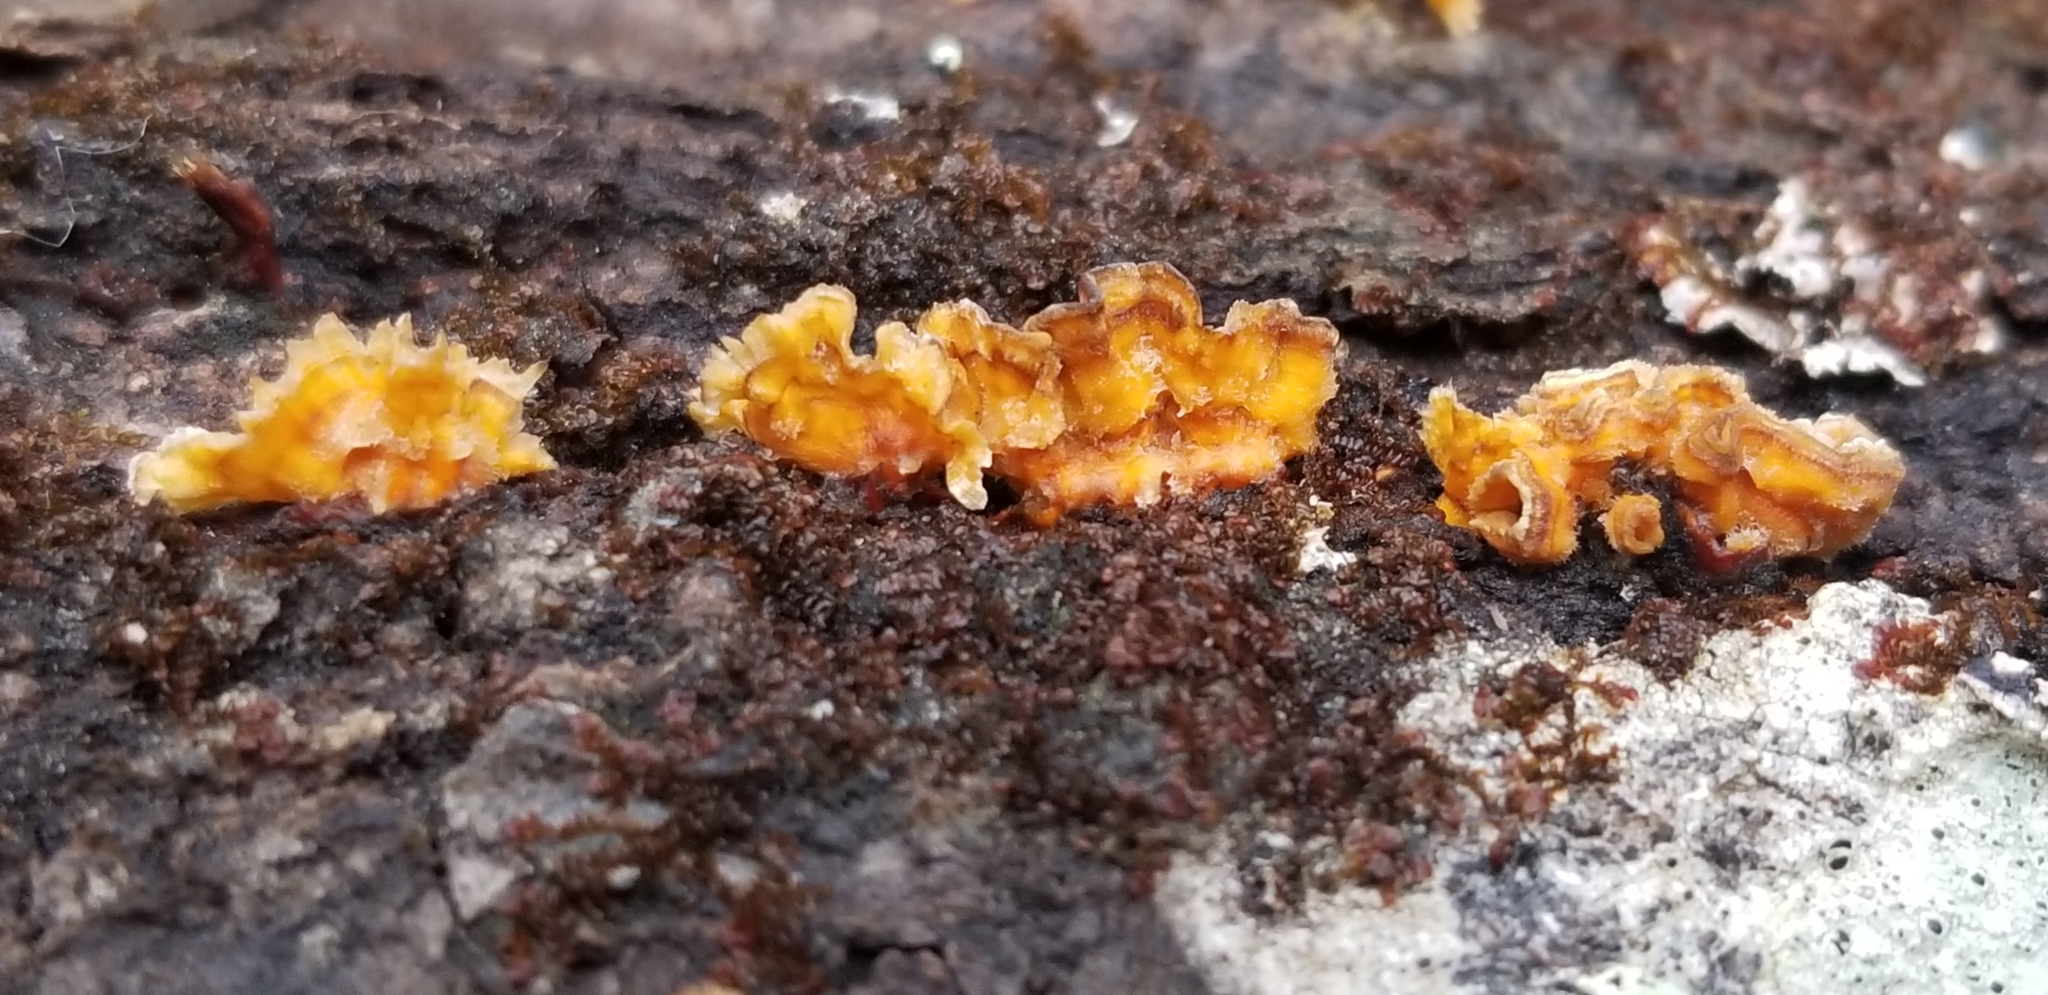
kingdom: Fungi
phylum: Basidiomycota
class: Agaricomycetes
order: Russulales
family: Stereaceae
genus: Stereum
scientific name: Stereum complicatum
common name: Crowded parchment
